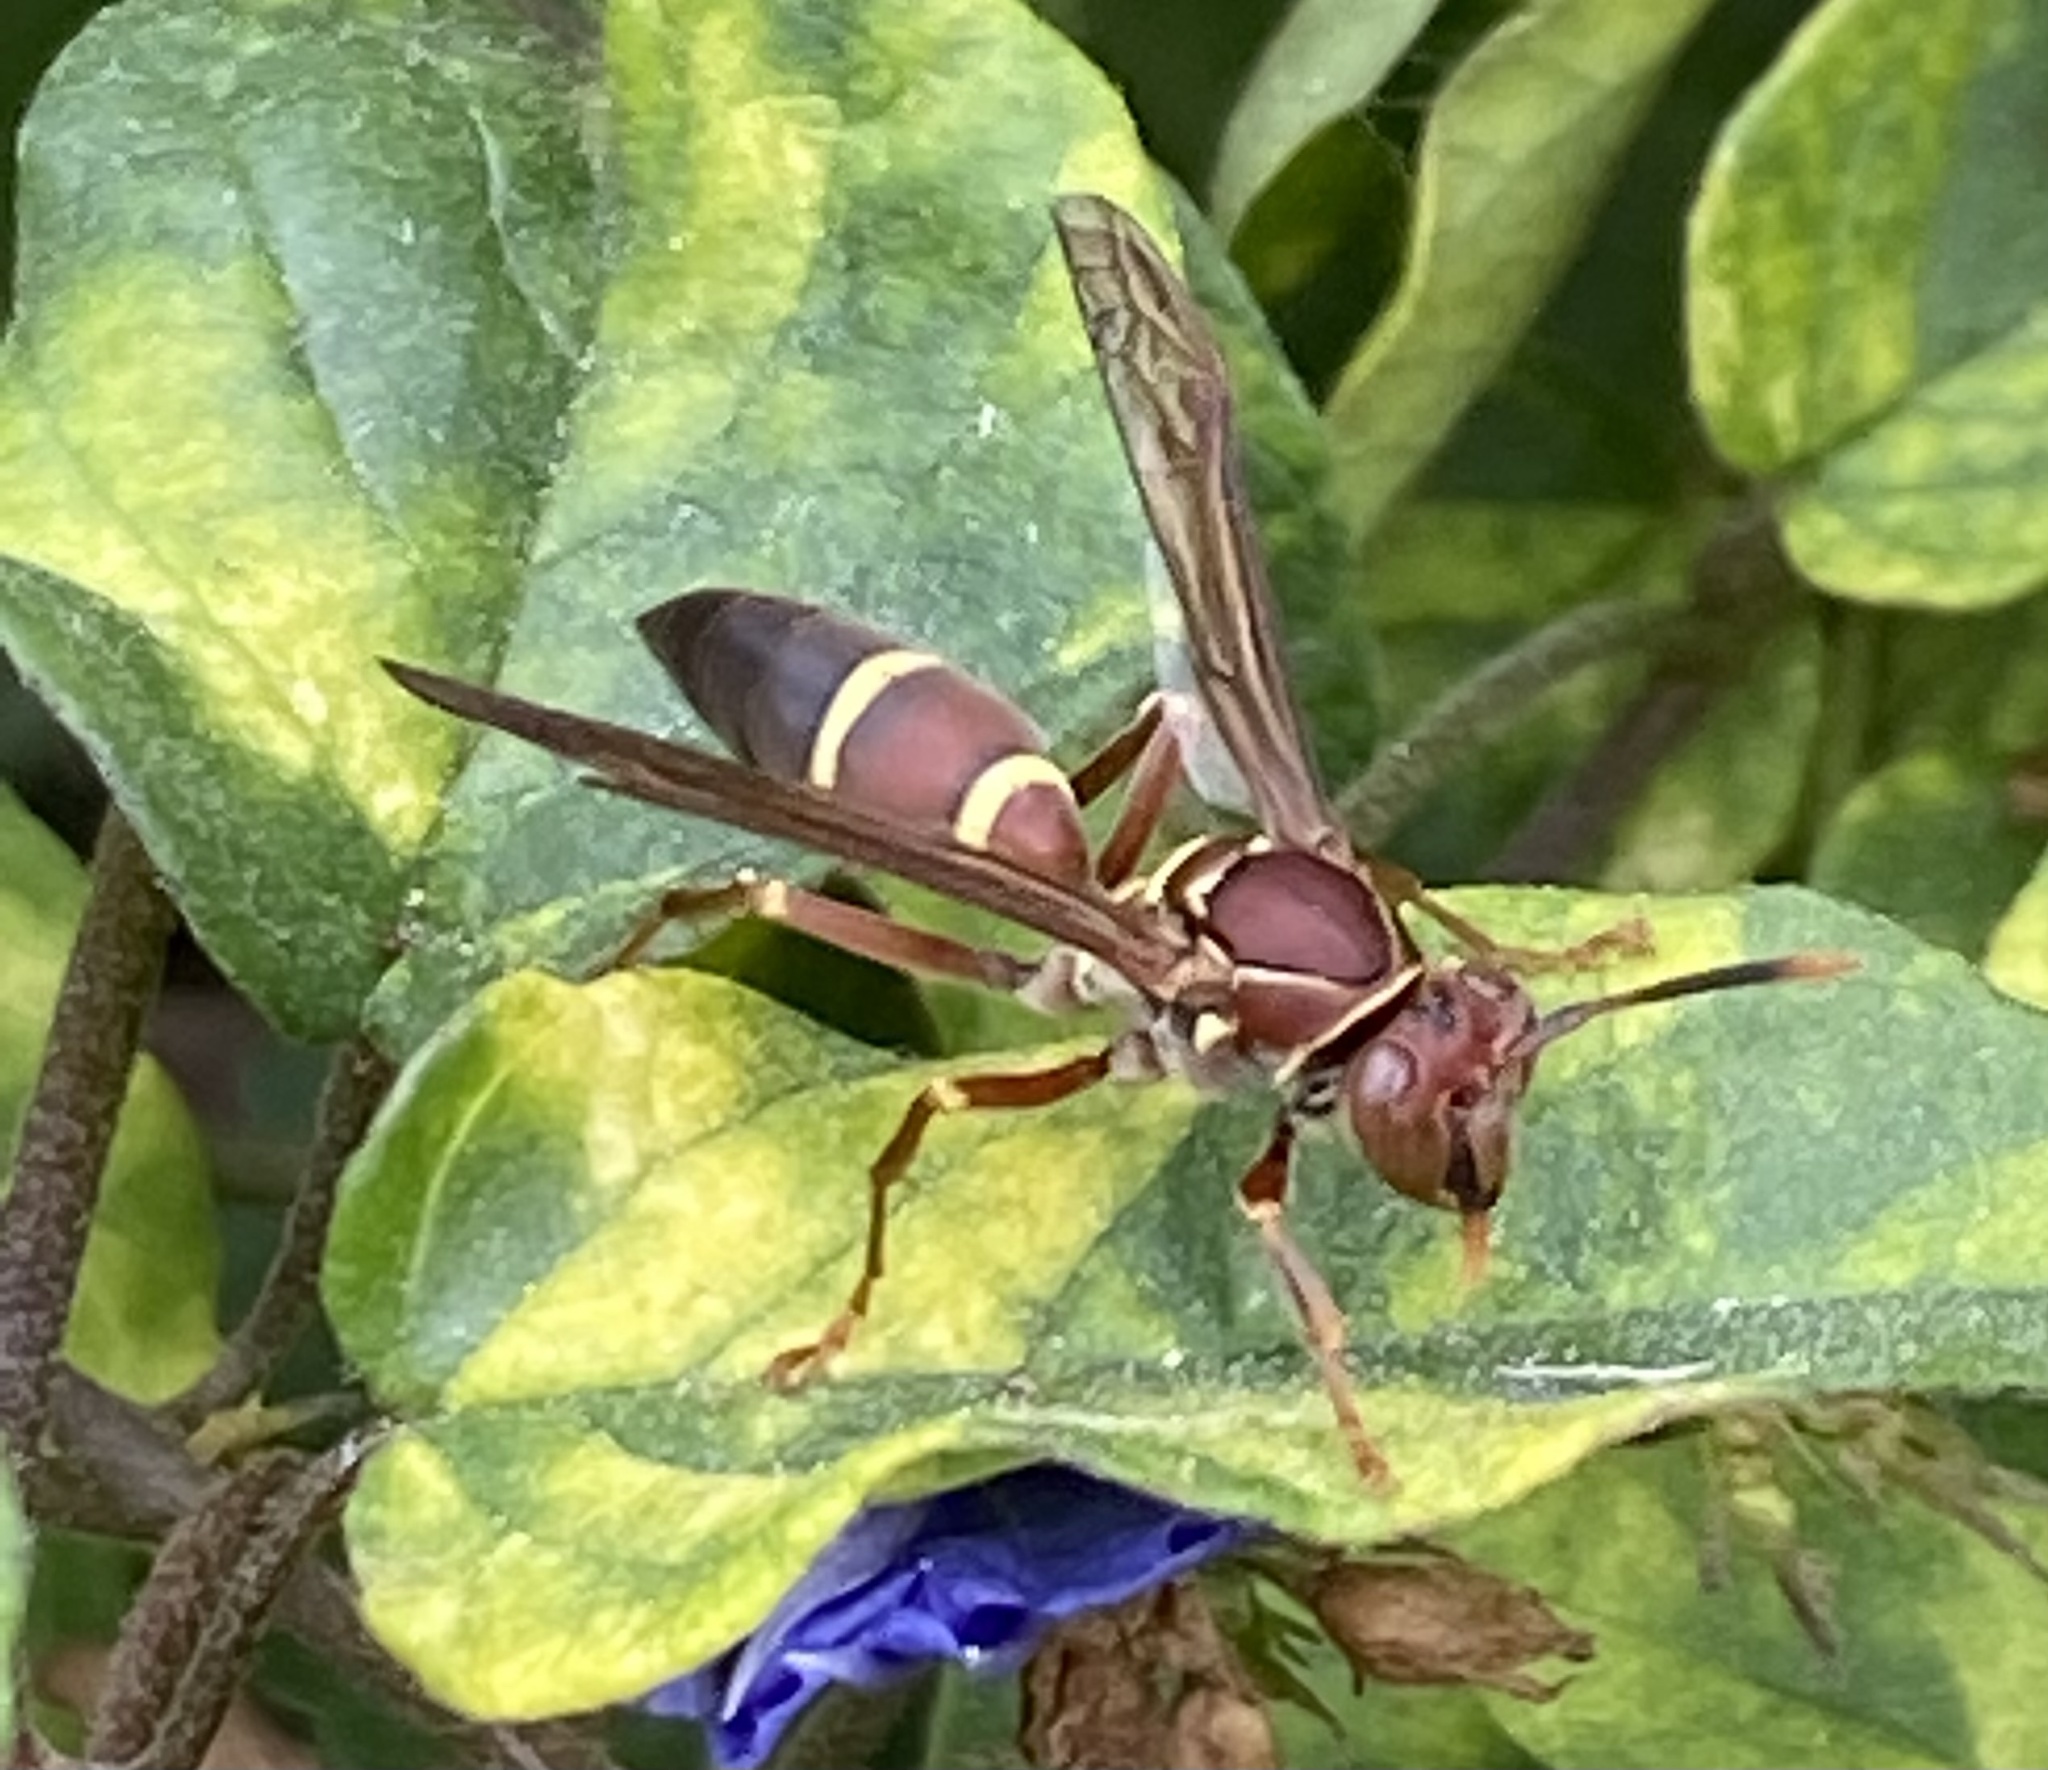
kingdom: Animalia
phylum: Arthropoda
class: Insecta
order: Hymenoptera
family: Eumenidae
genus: Polistes
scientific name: Polistes stabilinus
